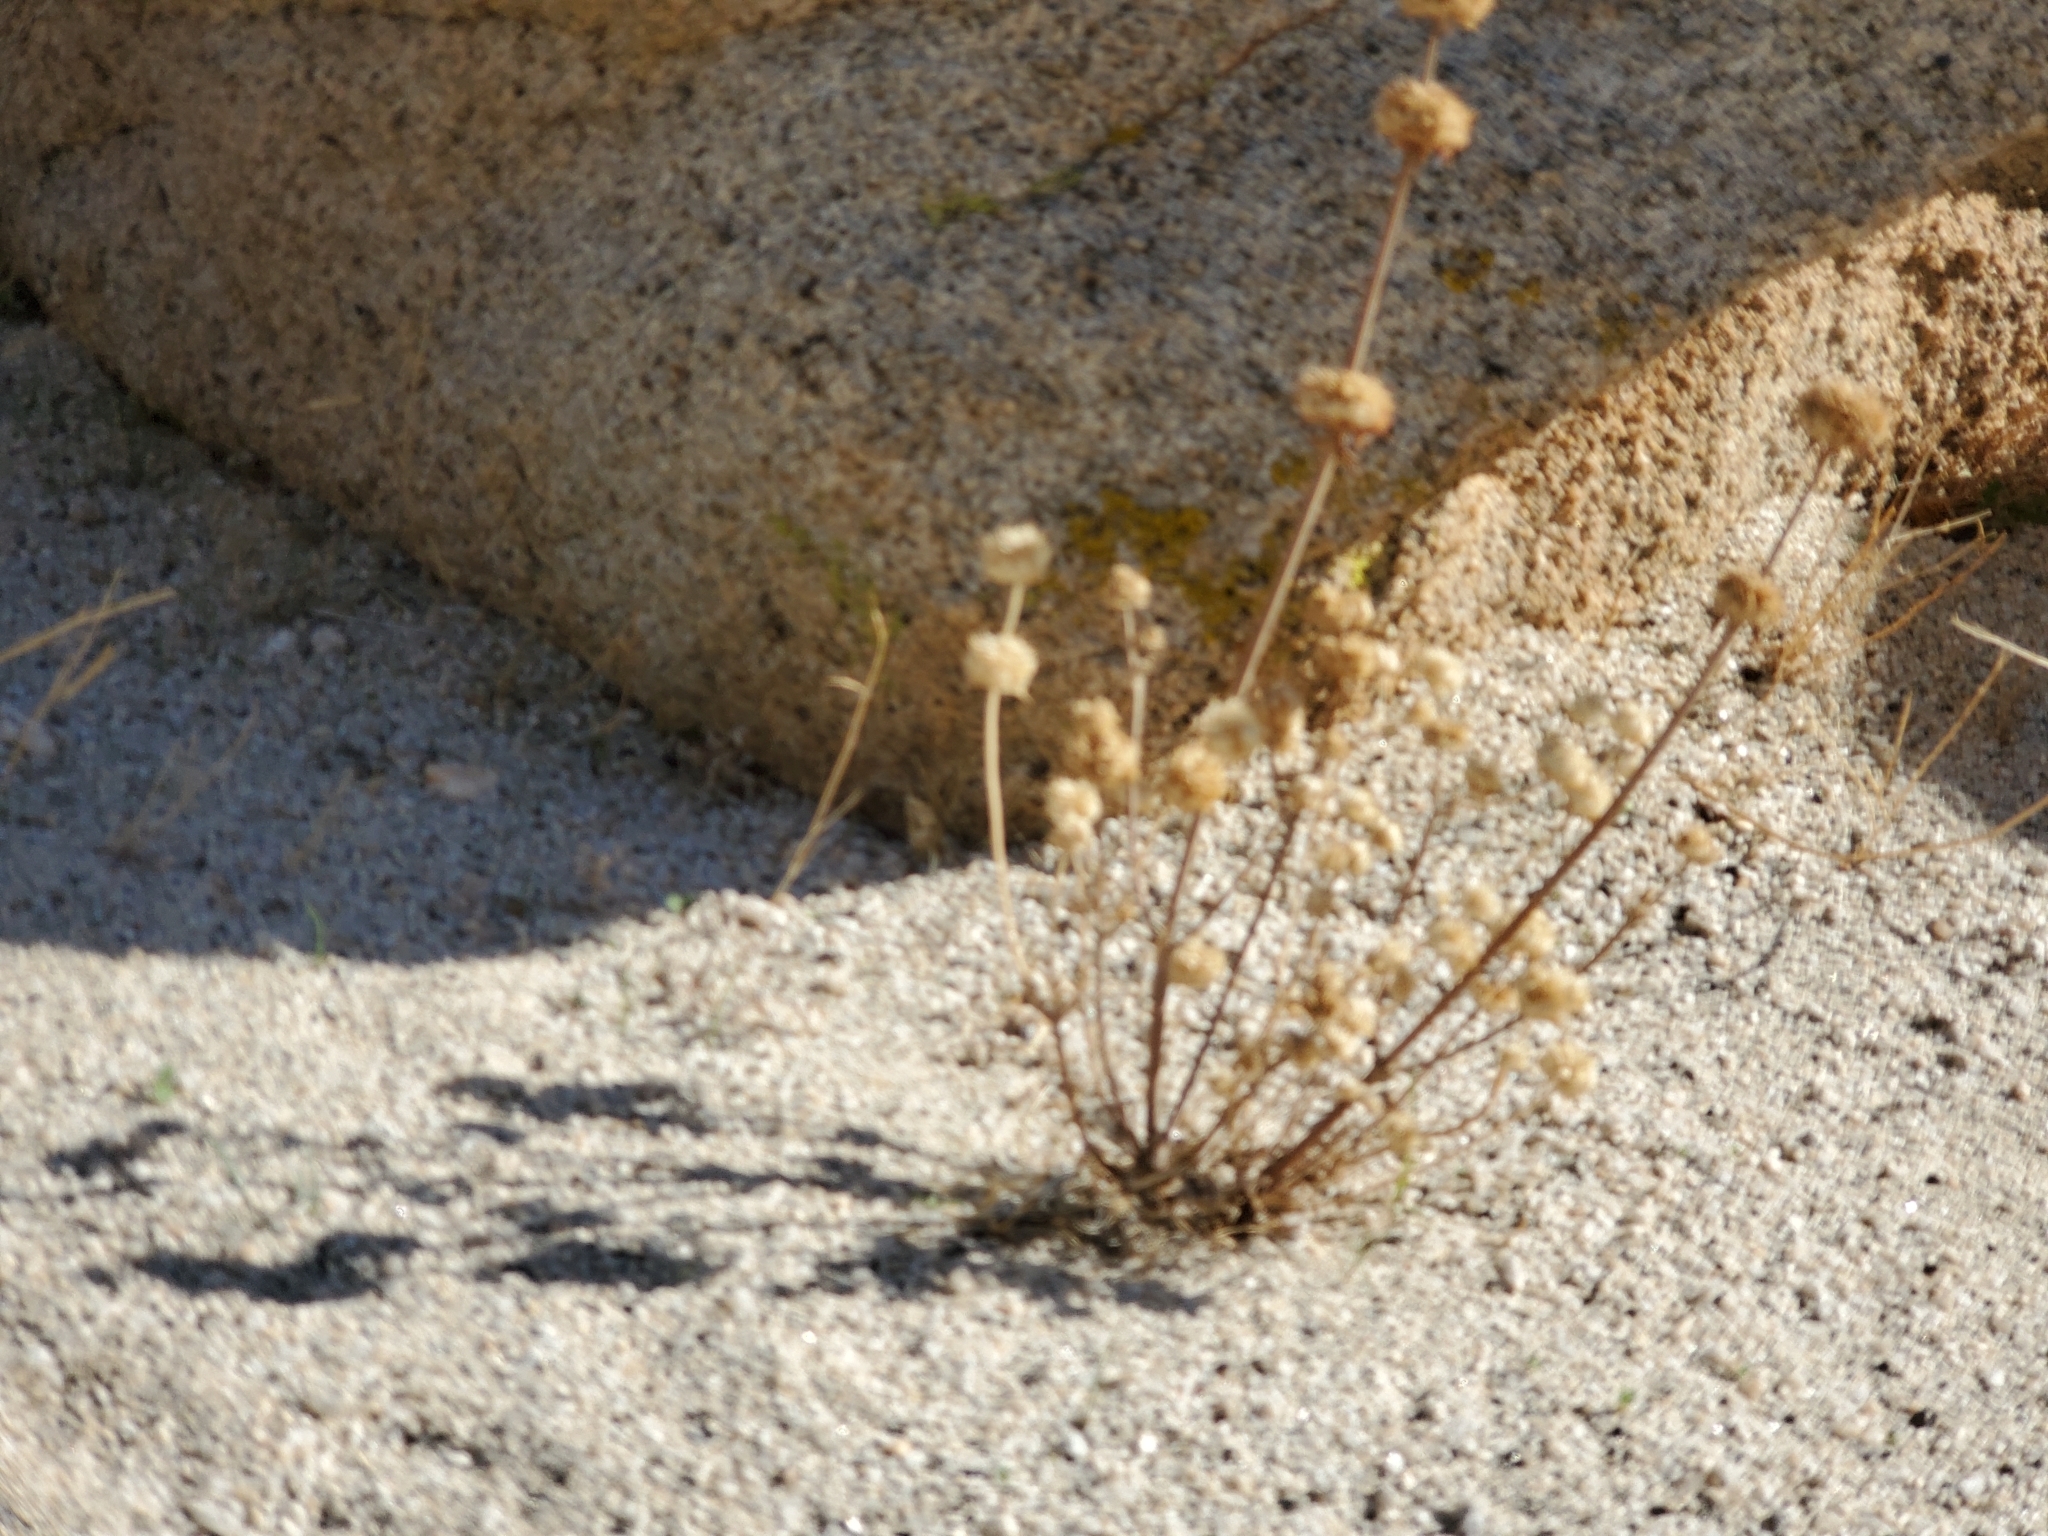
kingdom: Plantae
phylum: Tracheophyta
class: Magnoliopsida
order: Lamiales
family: Lamiaceae
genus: Salvia
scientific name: Salvia columbariae
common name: Chia
